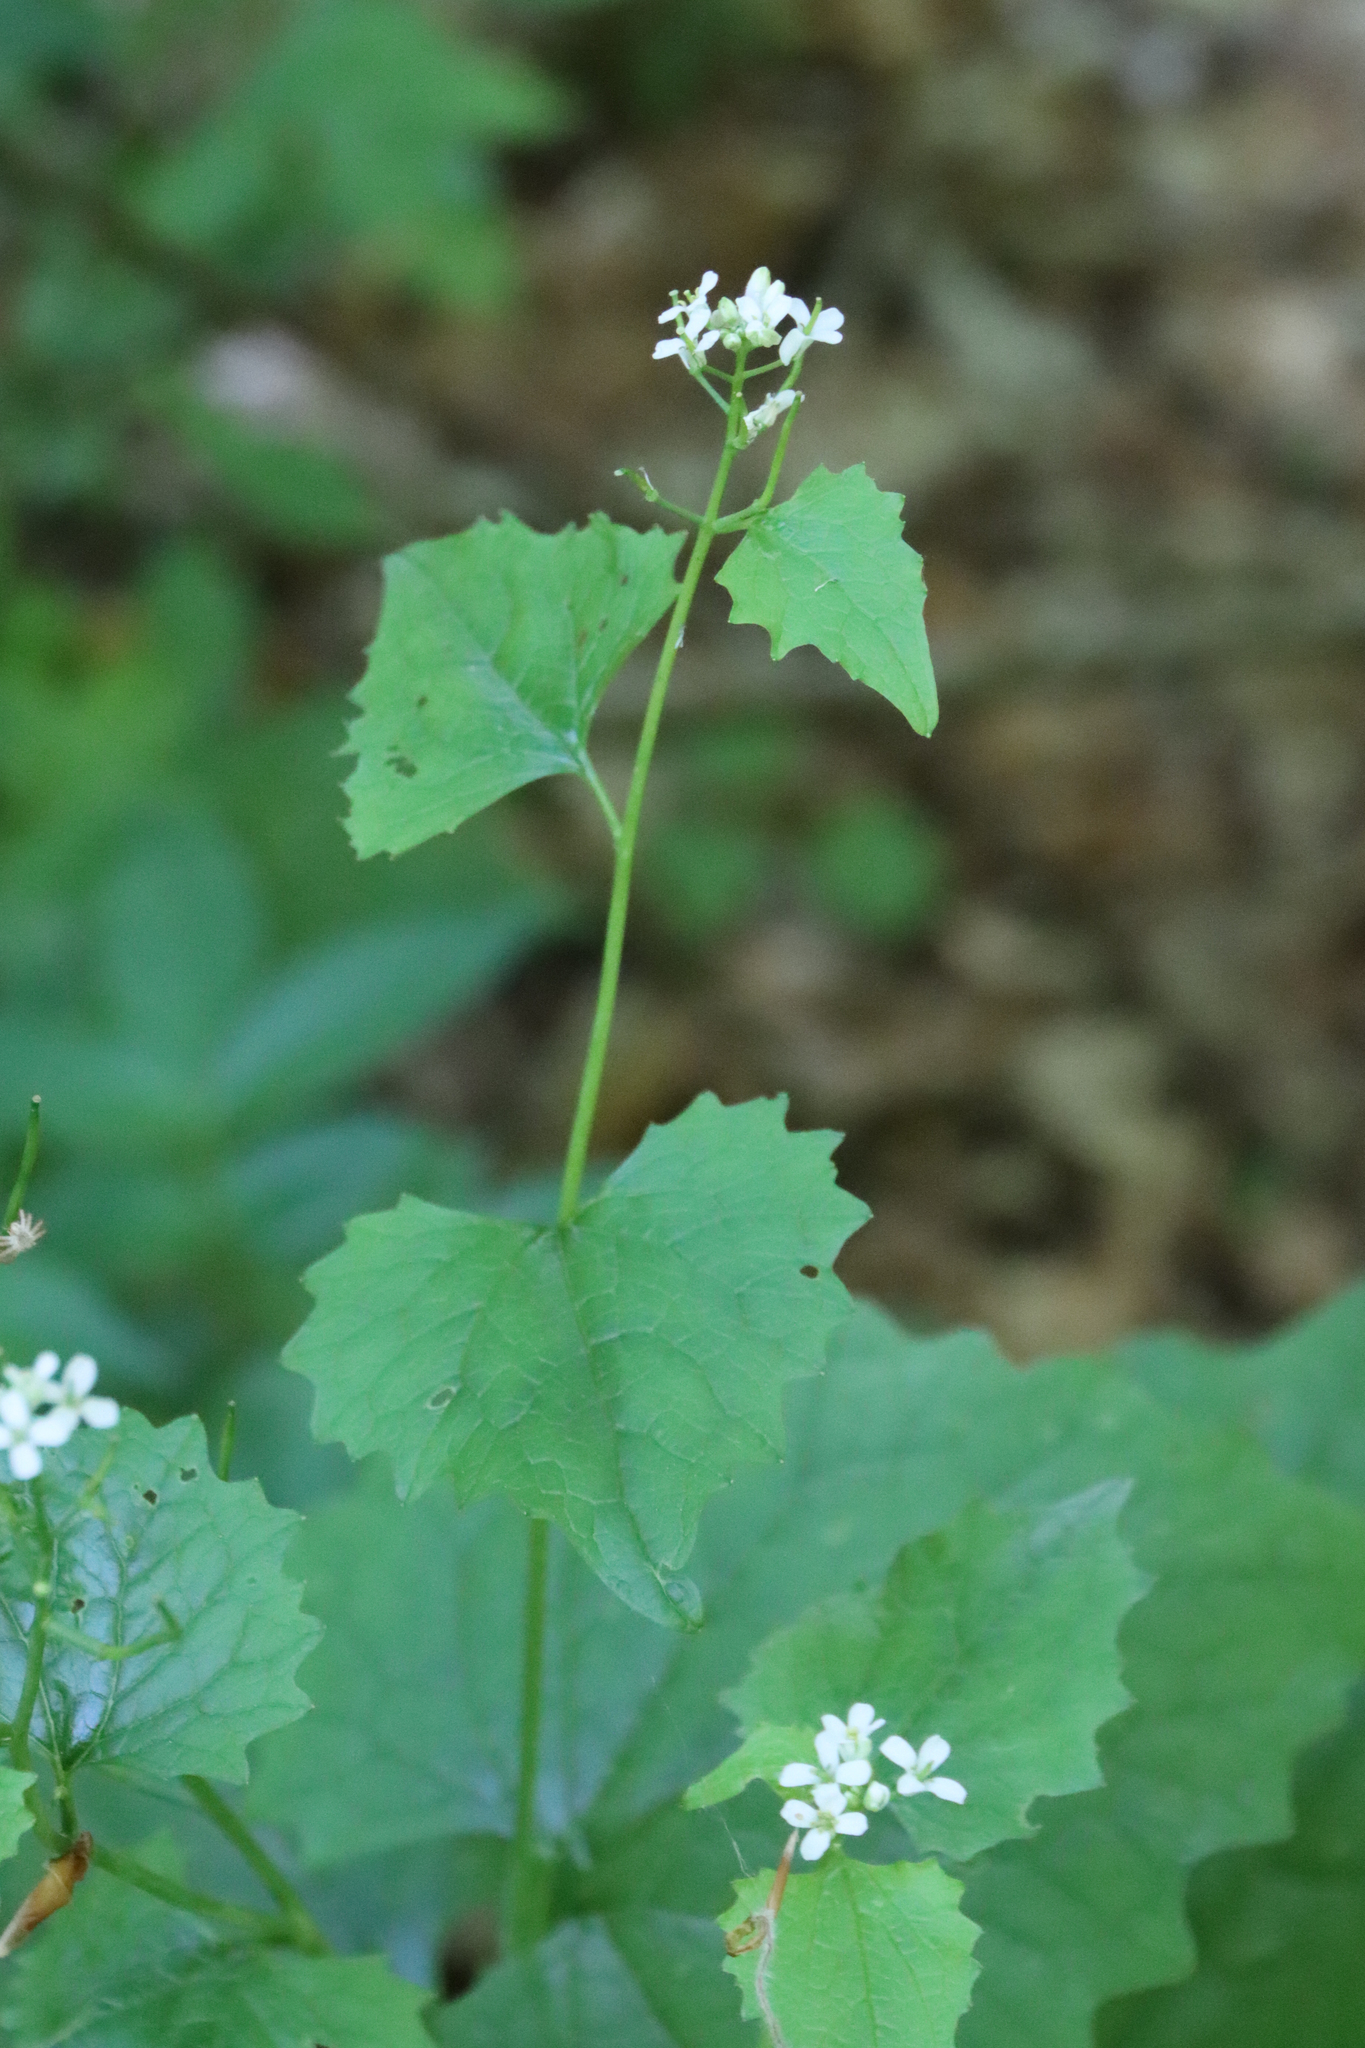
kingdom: Plantae
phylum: Tracheophyta
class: Magnoliopsida
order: Brassicales
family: Brassicaceae
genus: Alliaria
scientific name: Alliaria petiolata
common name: Garlic mustard
